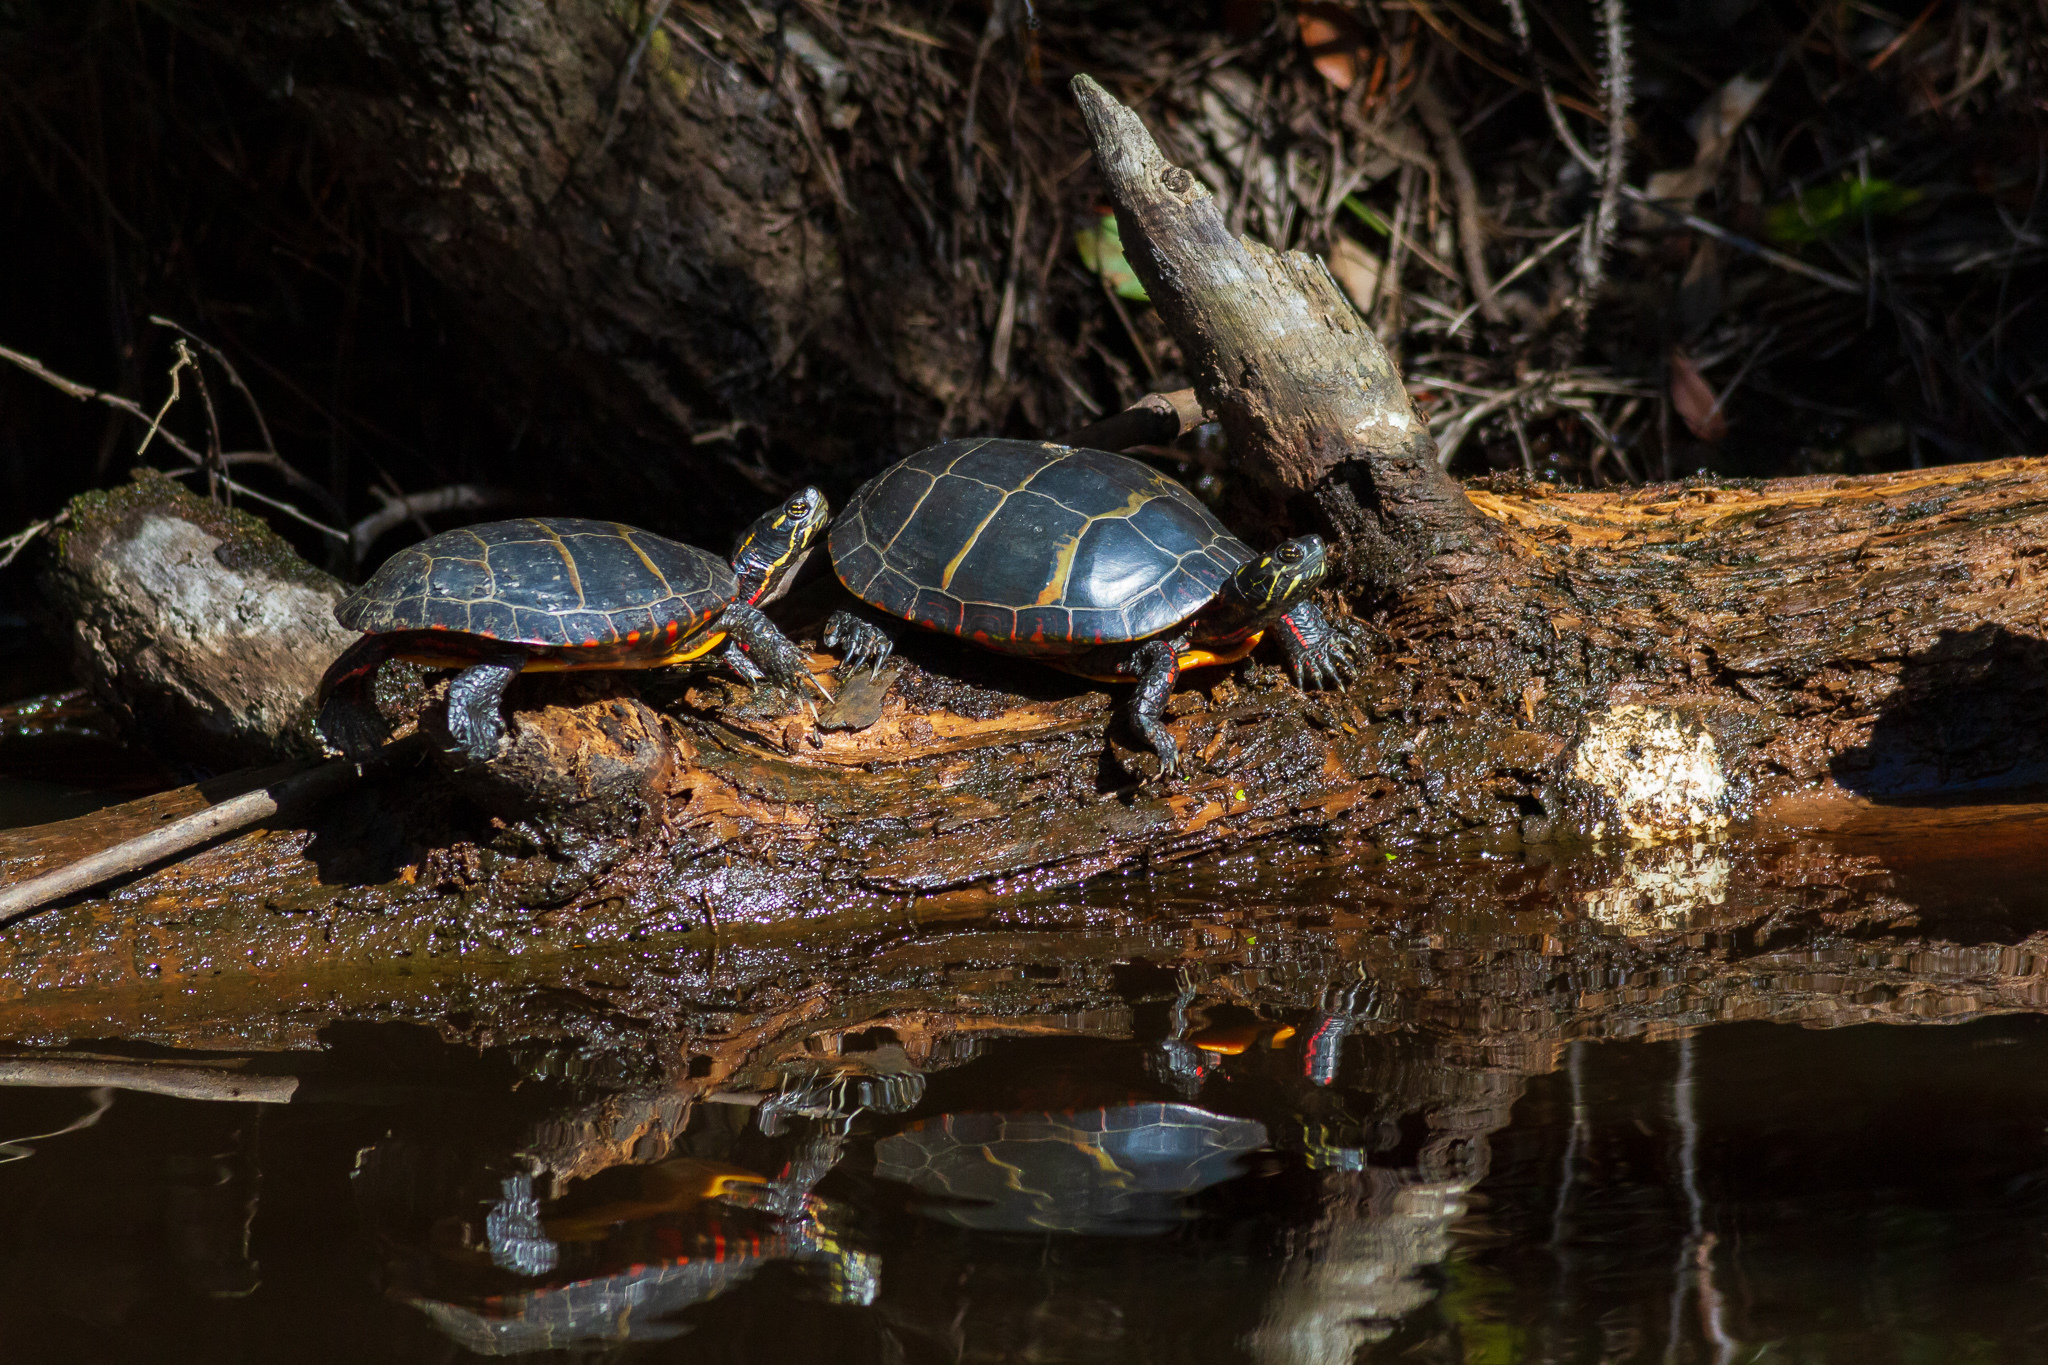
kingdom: Animalia
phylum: Chordata
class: Testudines
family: Emydidae
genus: Chrysemys
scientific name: Chrysemys picta
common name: Painted turtle
